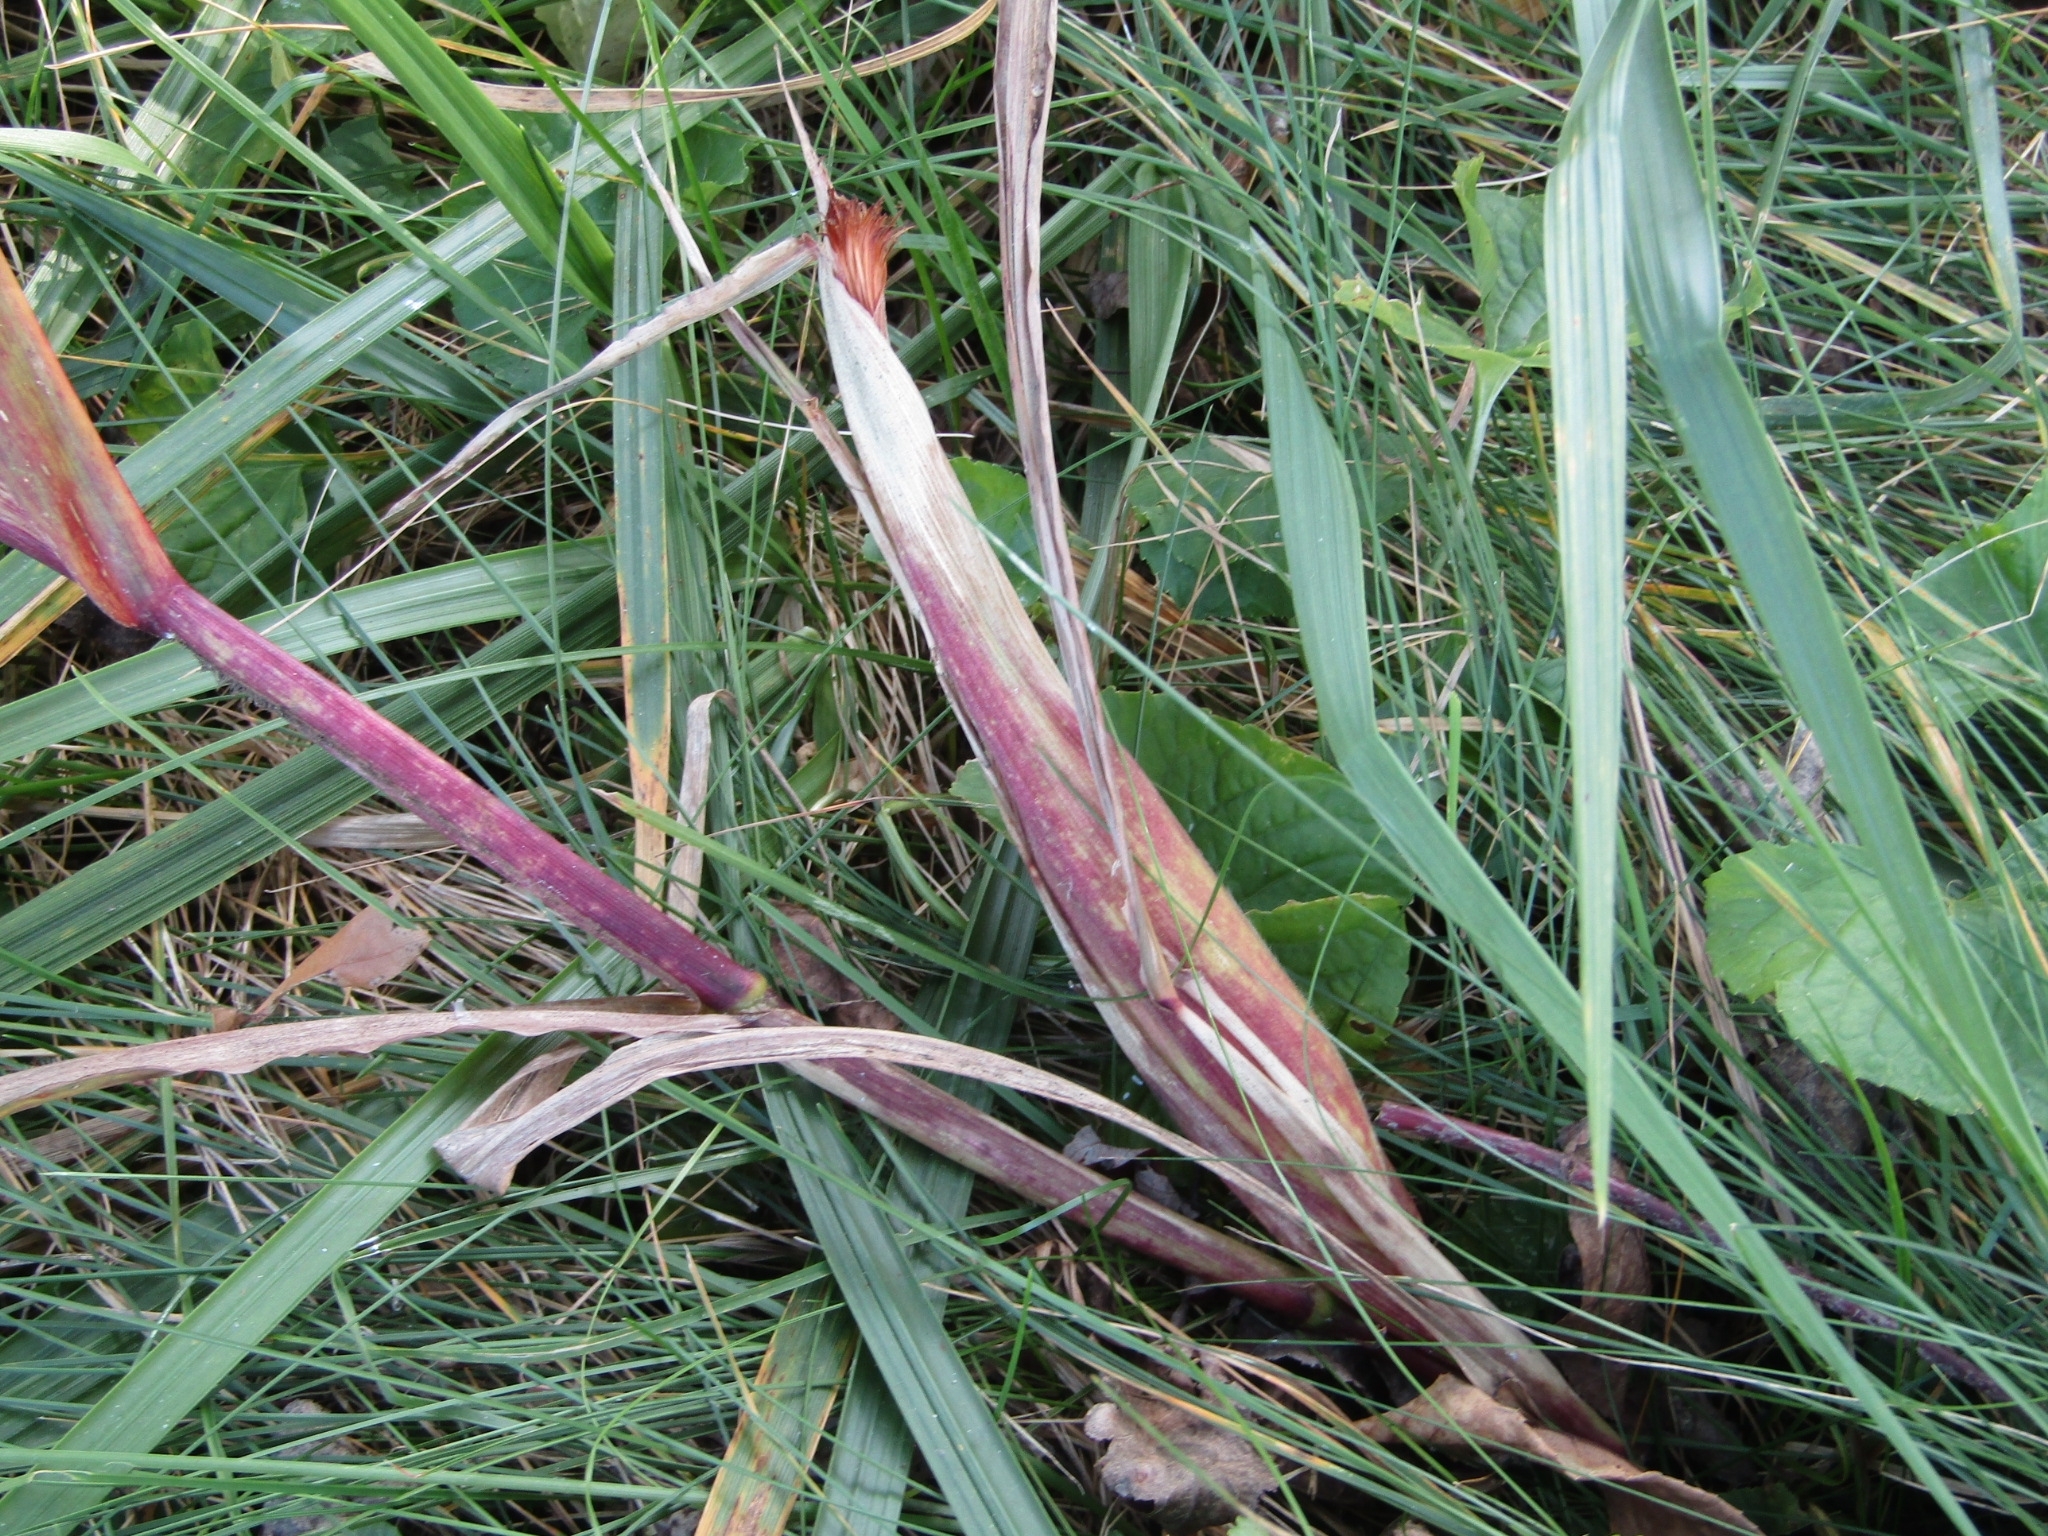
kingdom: Plantae
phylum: Tracheophyta
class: Liliopsida
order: Poales
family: Poaceae
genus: Zea
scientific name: Zea mays
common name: Maize
